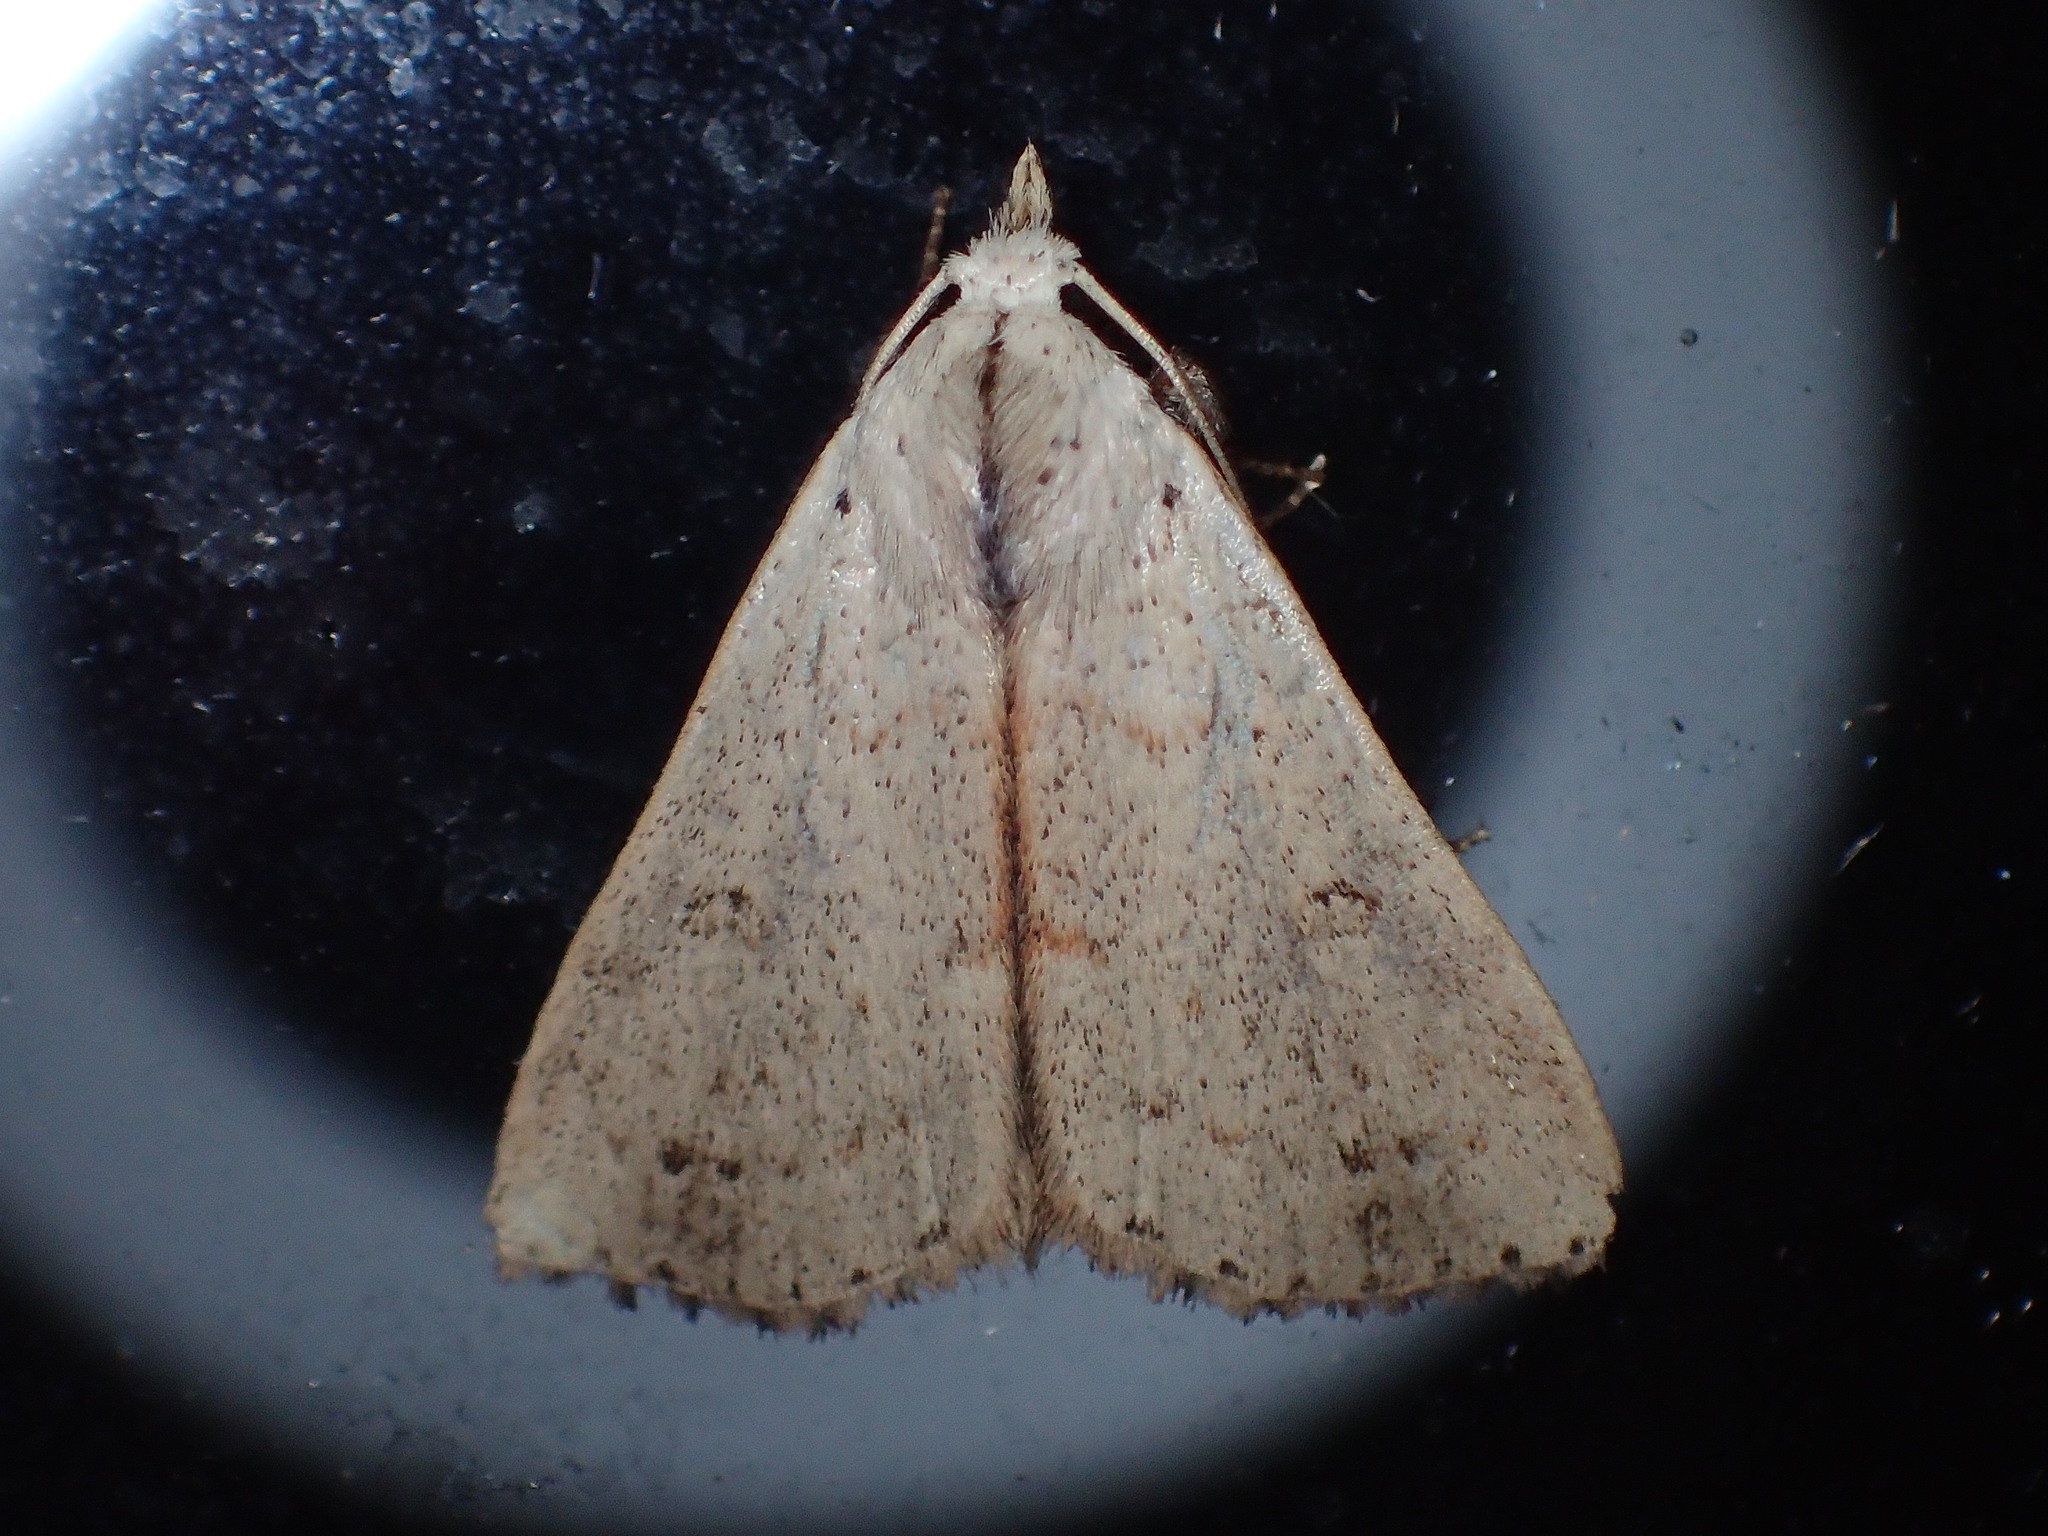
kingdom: Animalia
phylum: Arthropoda
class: Insecta
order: Lepidoptera
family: Erebidae
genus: Scolecocampa
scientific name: Scolecocampa liburna
